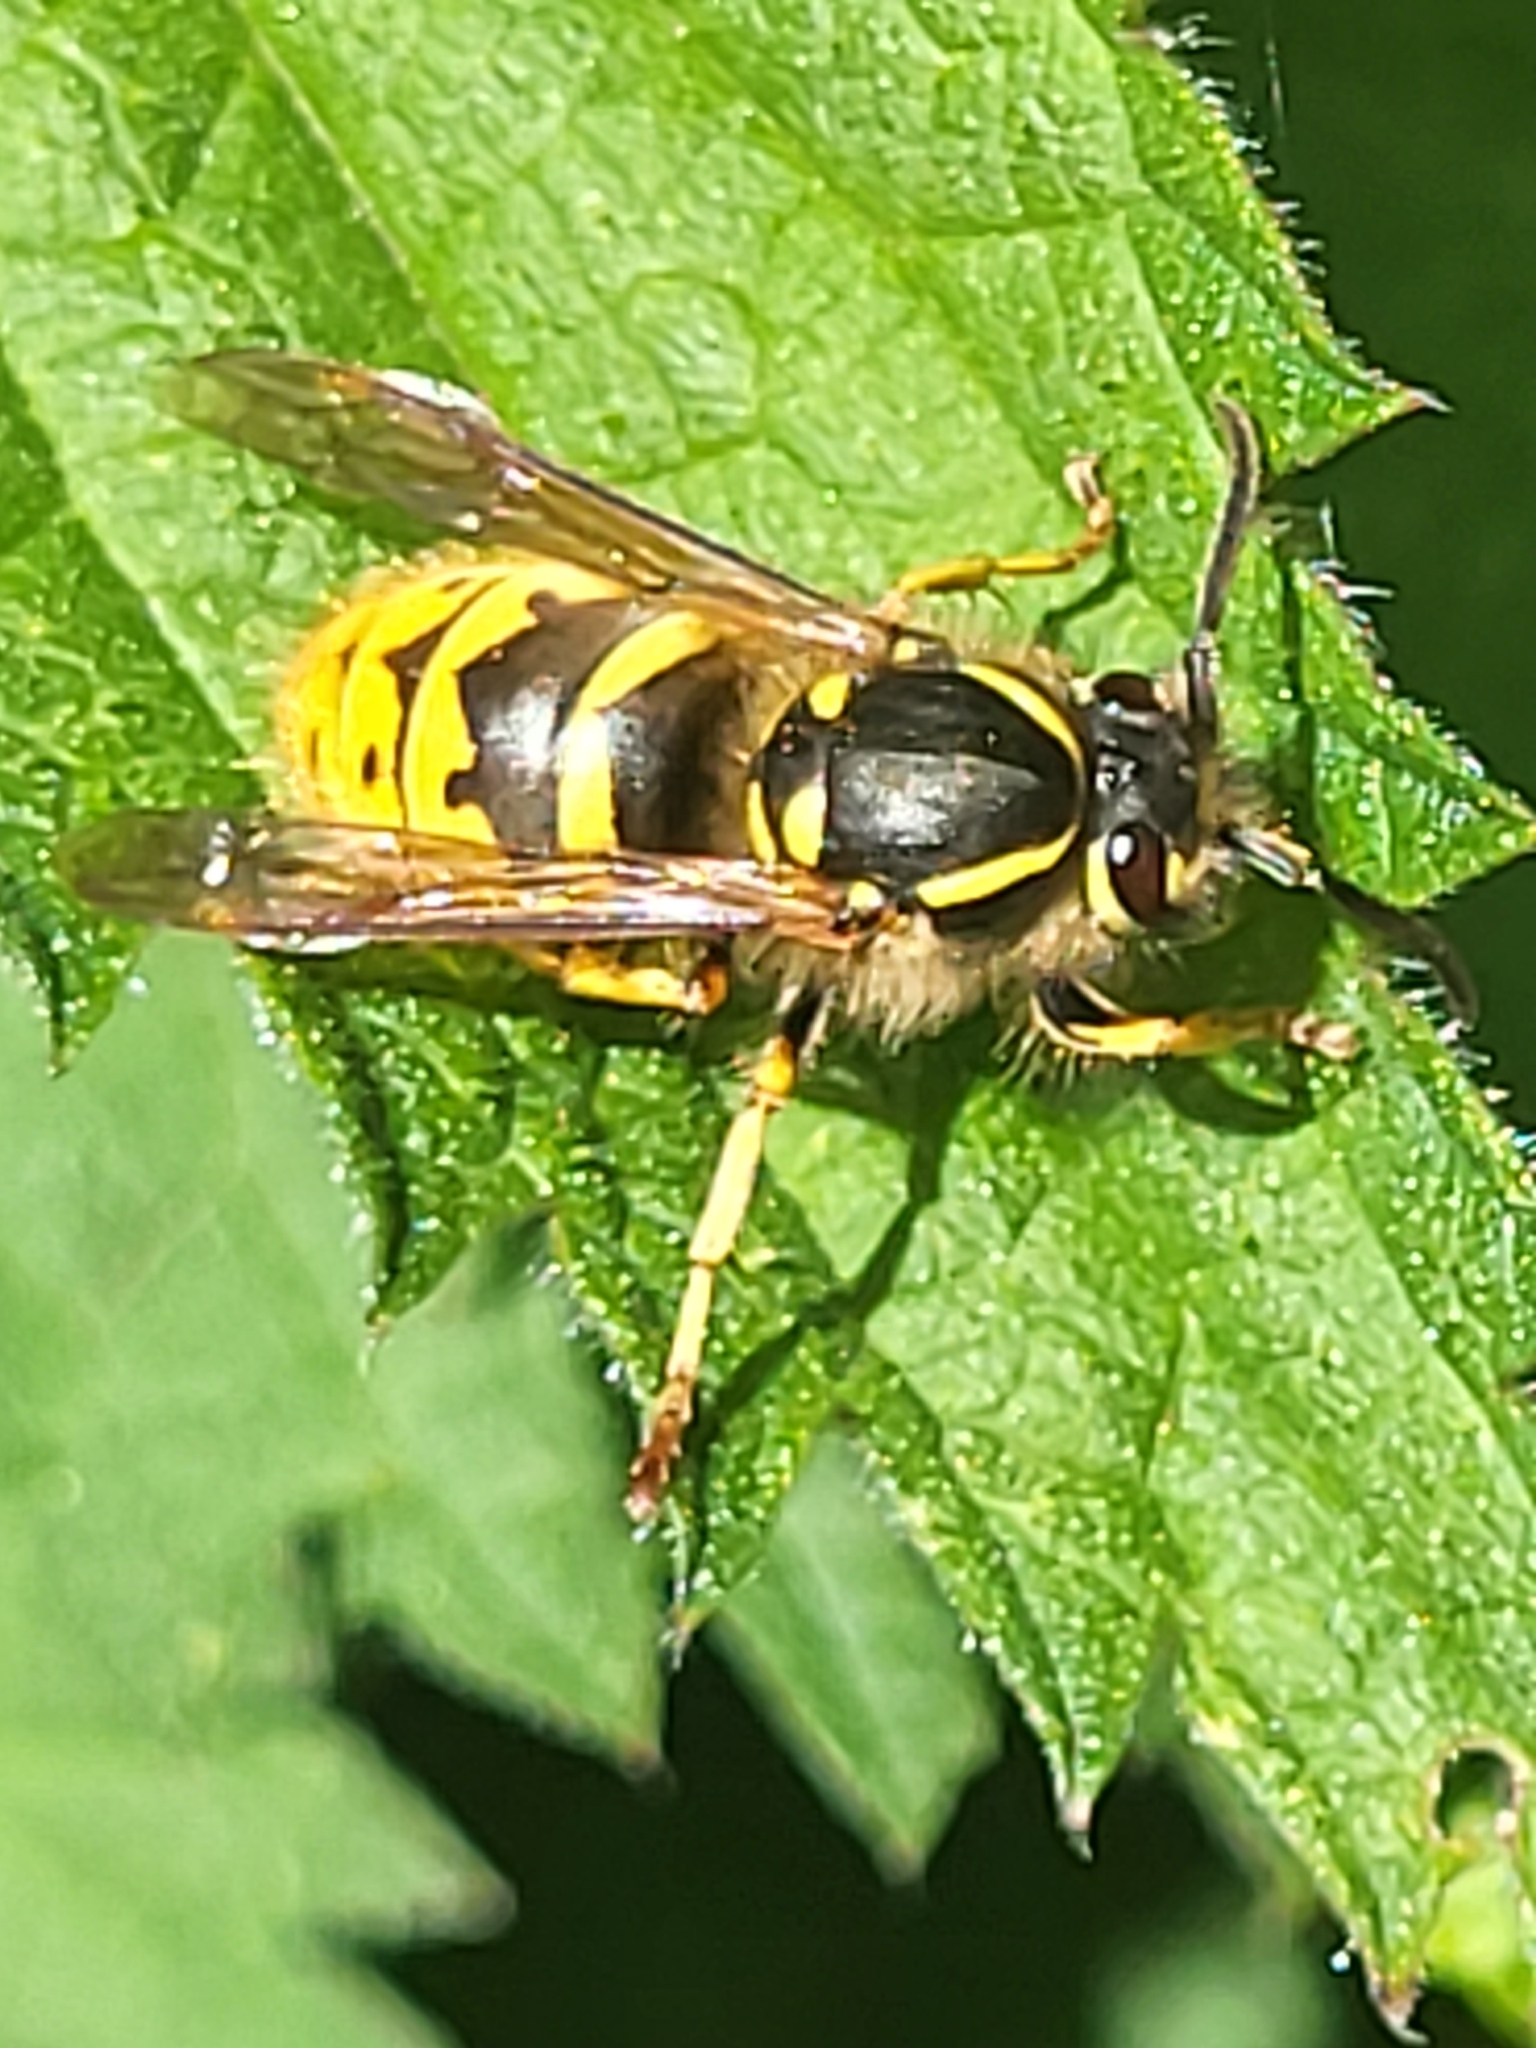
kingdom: Animalia
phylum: Arthropoda
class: Insecta
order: Hymenoptera
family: Vespidae
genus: Vespula
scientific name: Vespula vulgaris
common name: Common wasp
